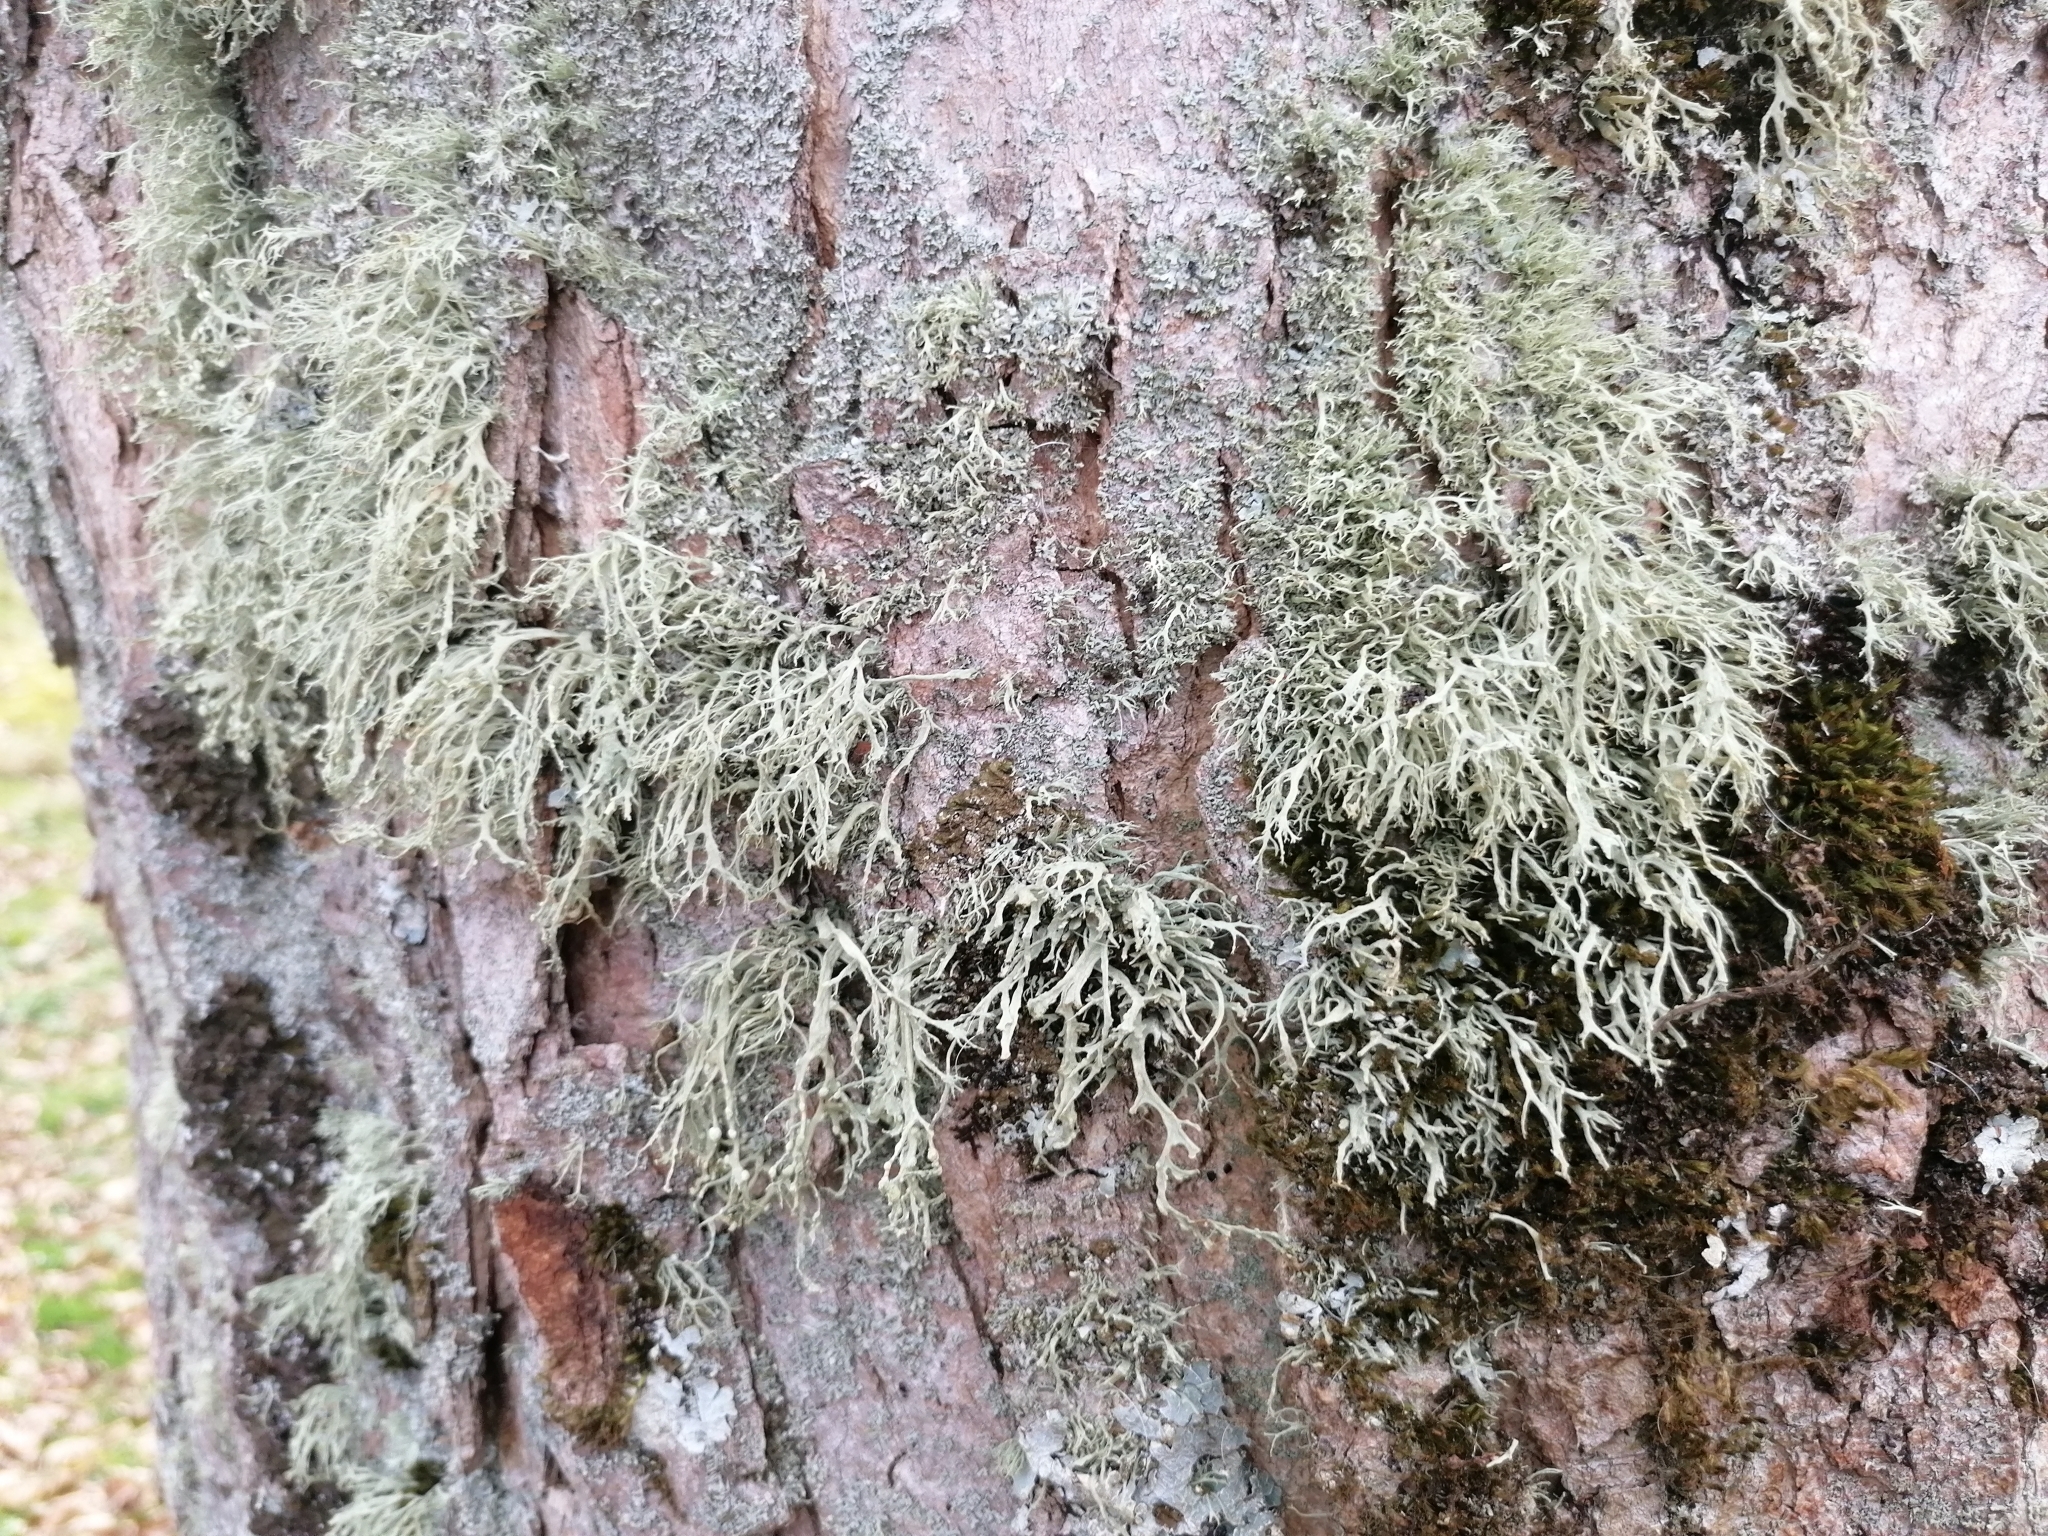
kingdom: Fungi
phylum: Ascomycota
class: Lecanoromycetes
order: Lecanorales
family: Ramalinaceae
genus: Ramalina
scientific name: Ramalina farinacea
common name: Farinose cartilage lichen
